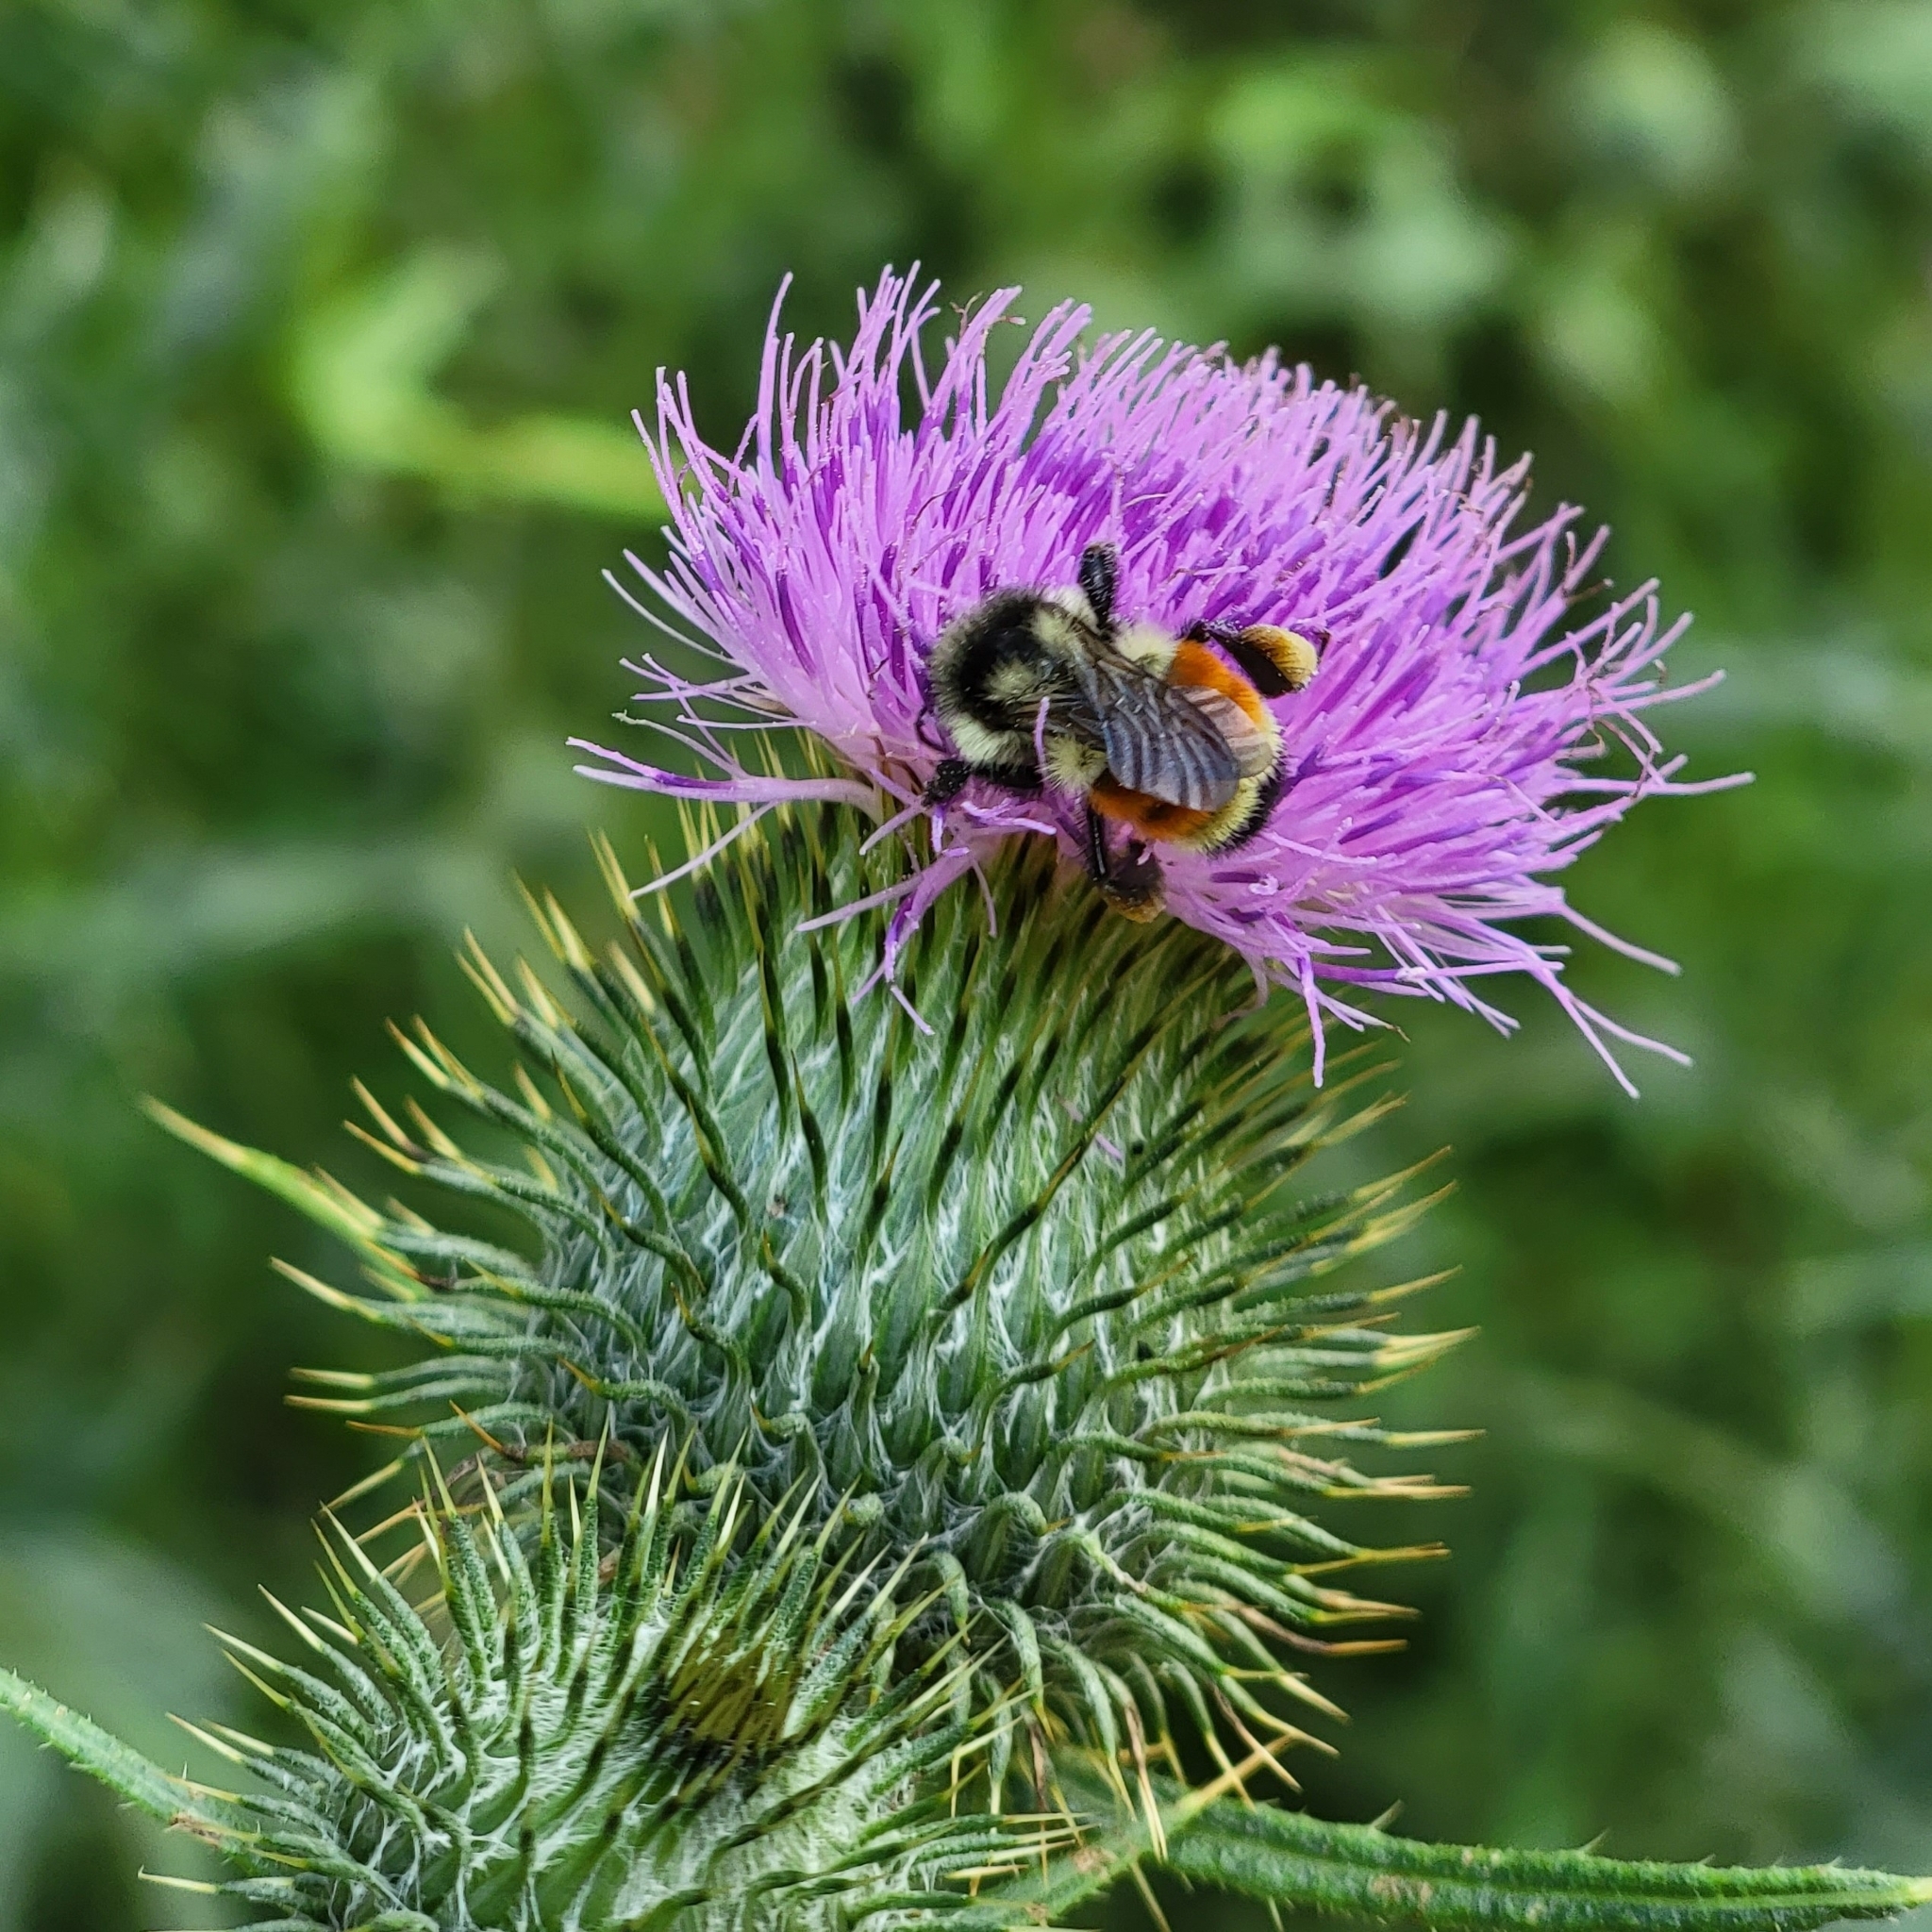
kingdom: Animalia
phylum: Arthropoda
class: Insecta
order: Hymenoptera
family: Apidae
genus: Bombus
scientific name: Bombus ternarius
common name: Tri-colored bumble bee
